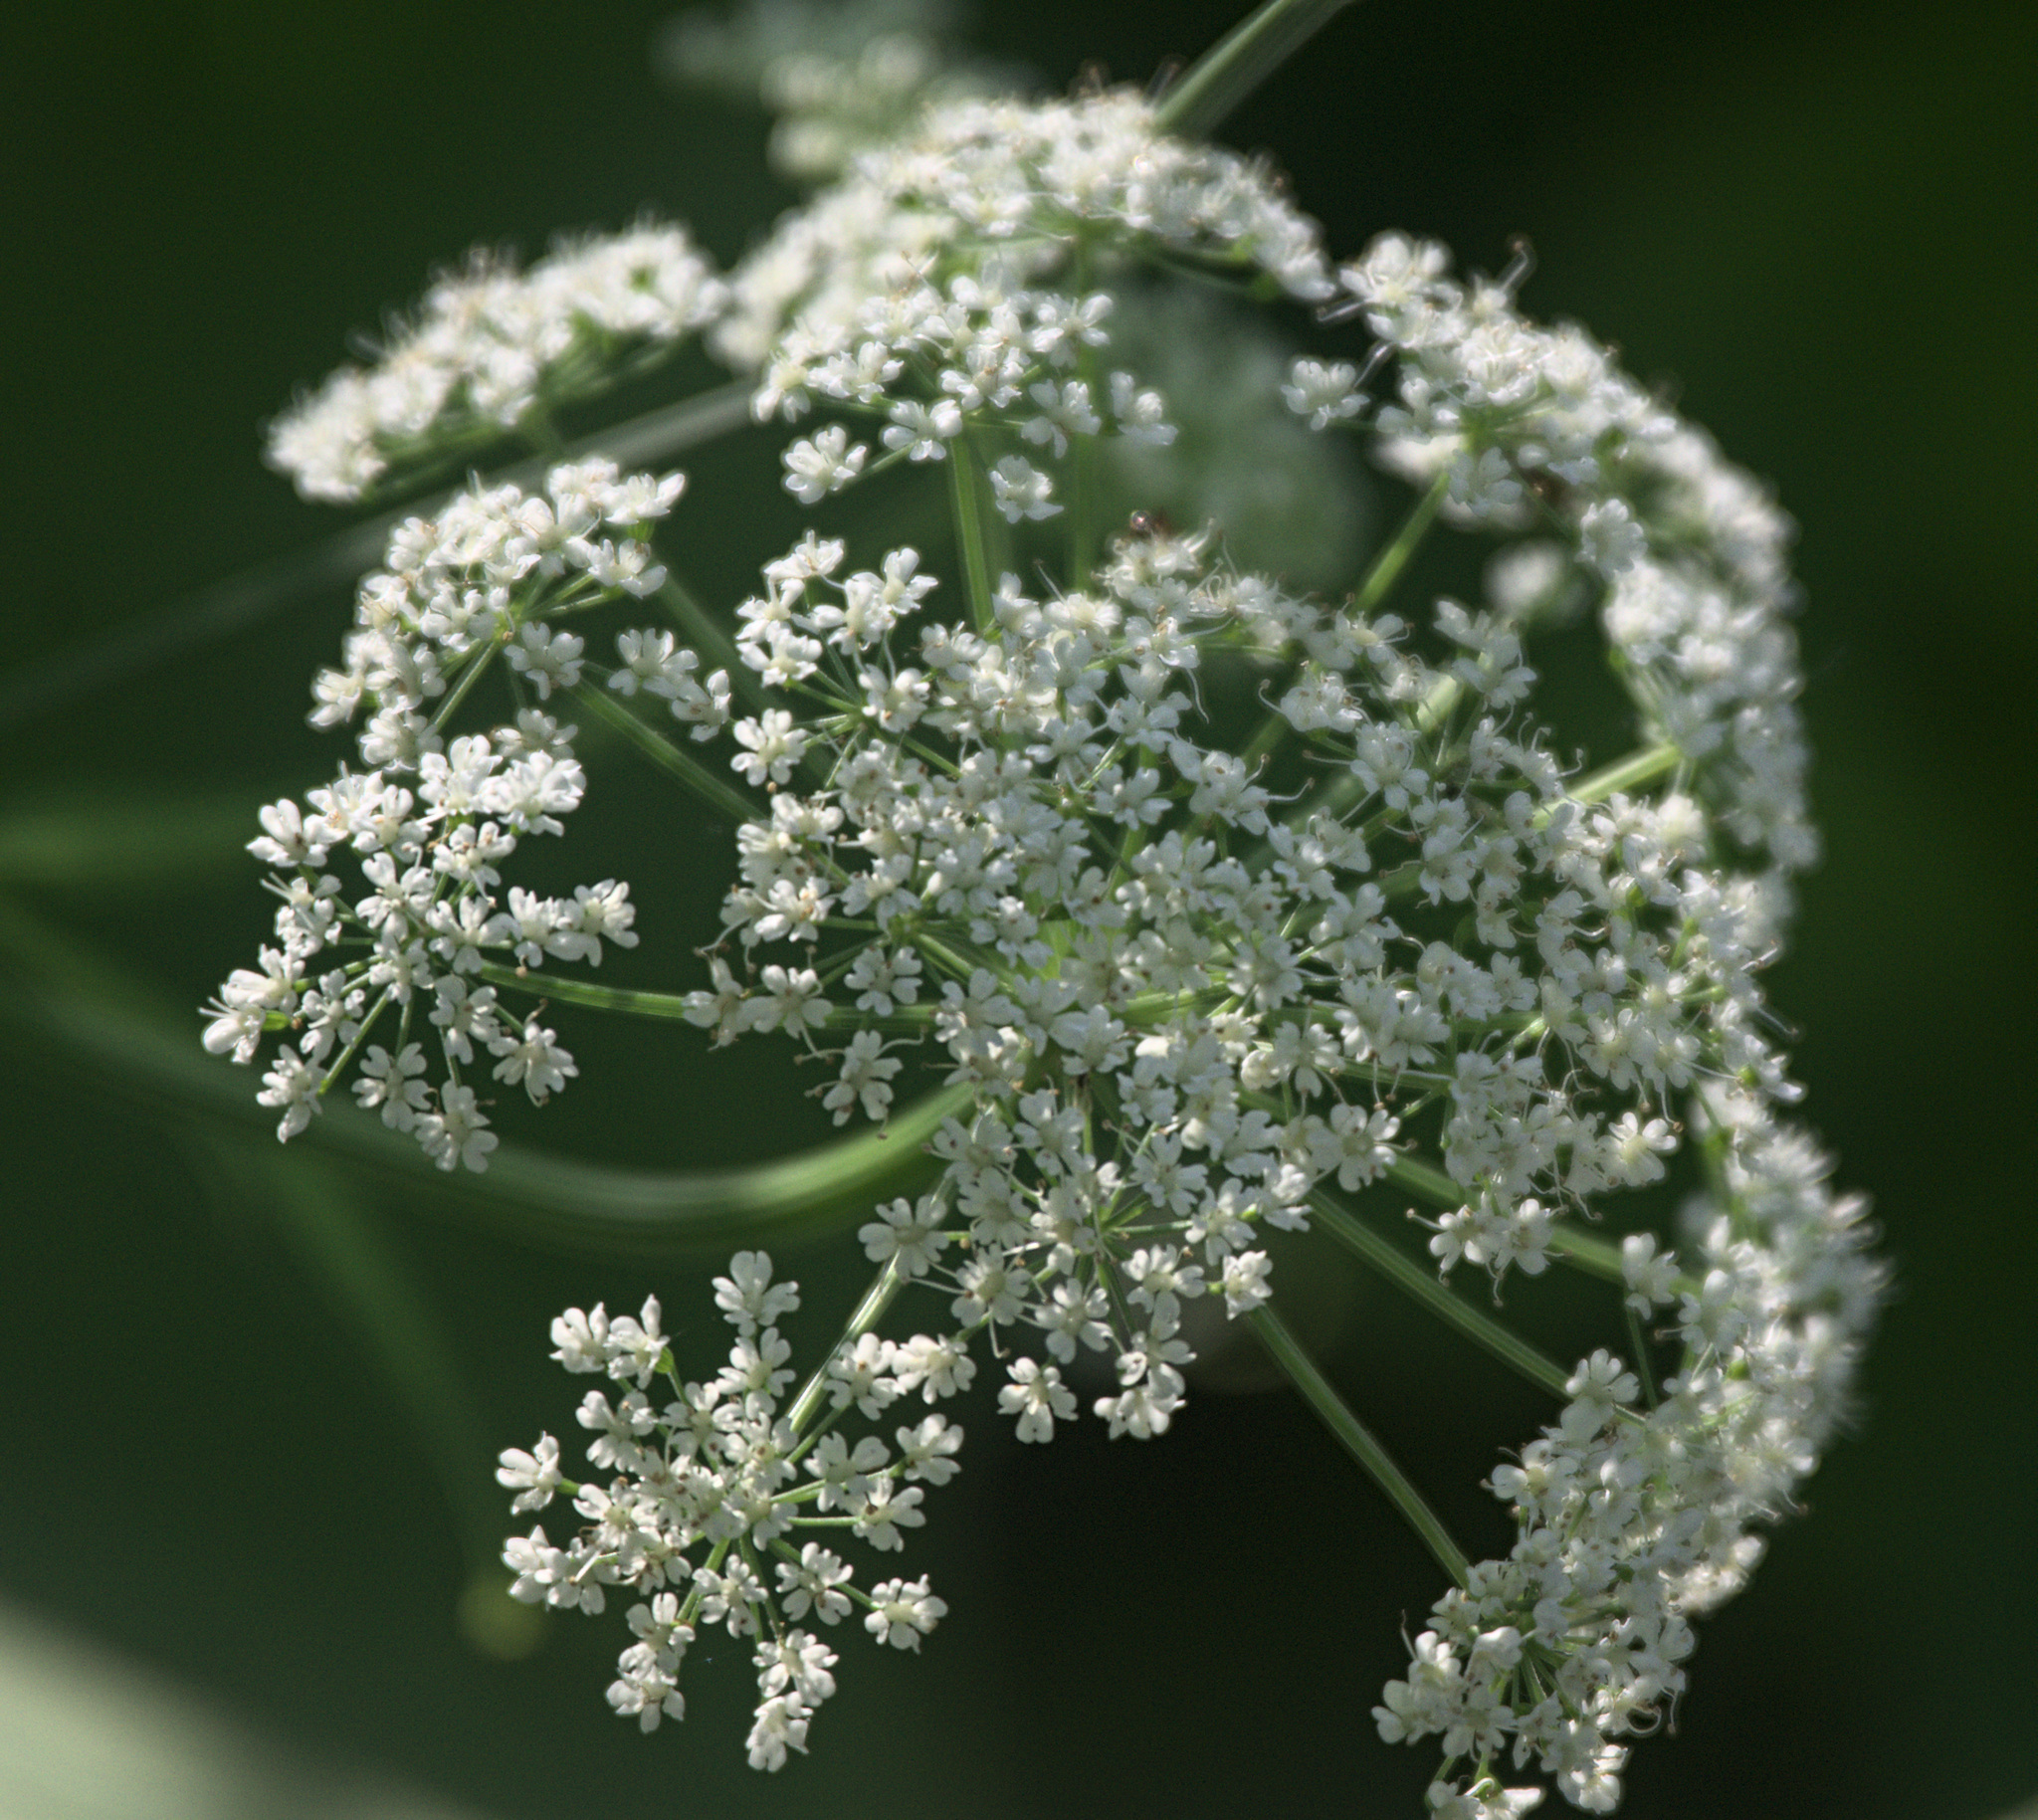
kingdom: Plantae
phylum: Tracheophyta
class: Magnoliopsida
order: Apiales
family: Apiaceae
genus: Aegopodium
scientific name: Aegopodium podagraria
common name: Ground-elder
